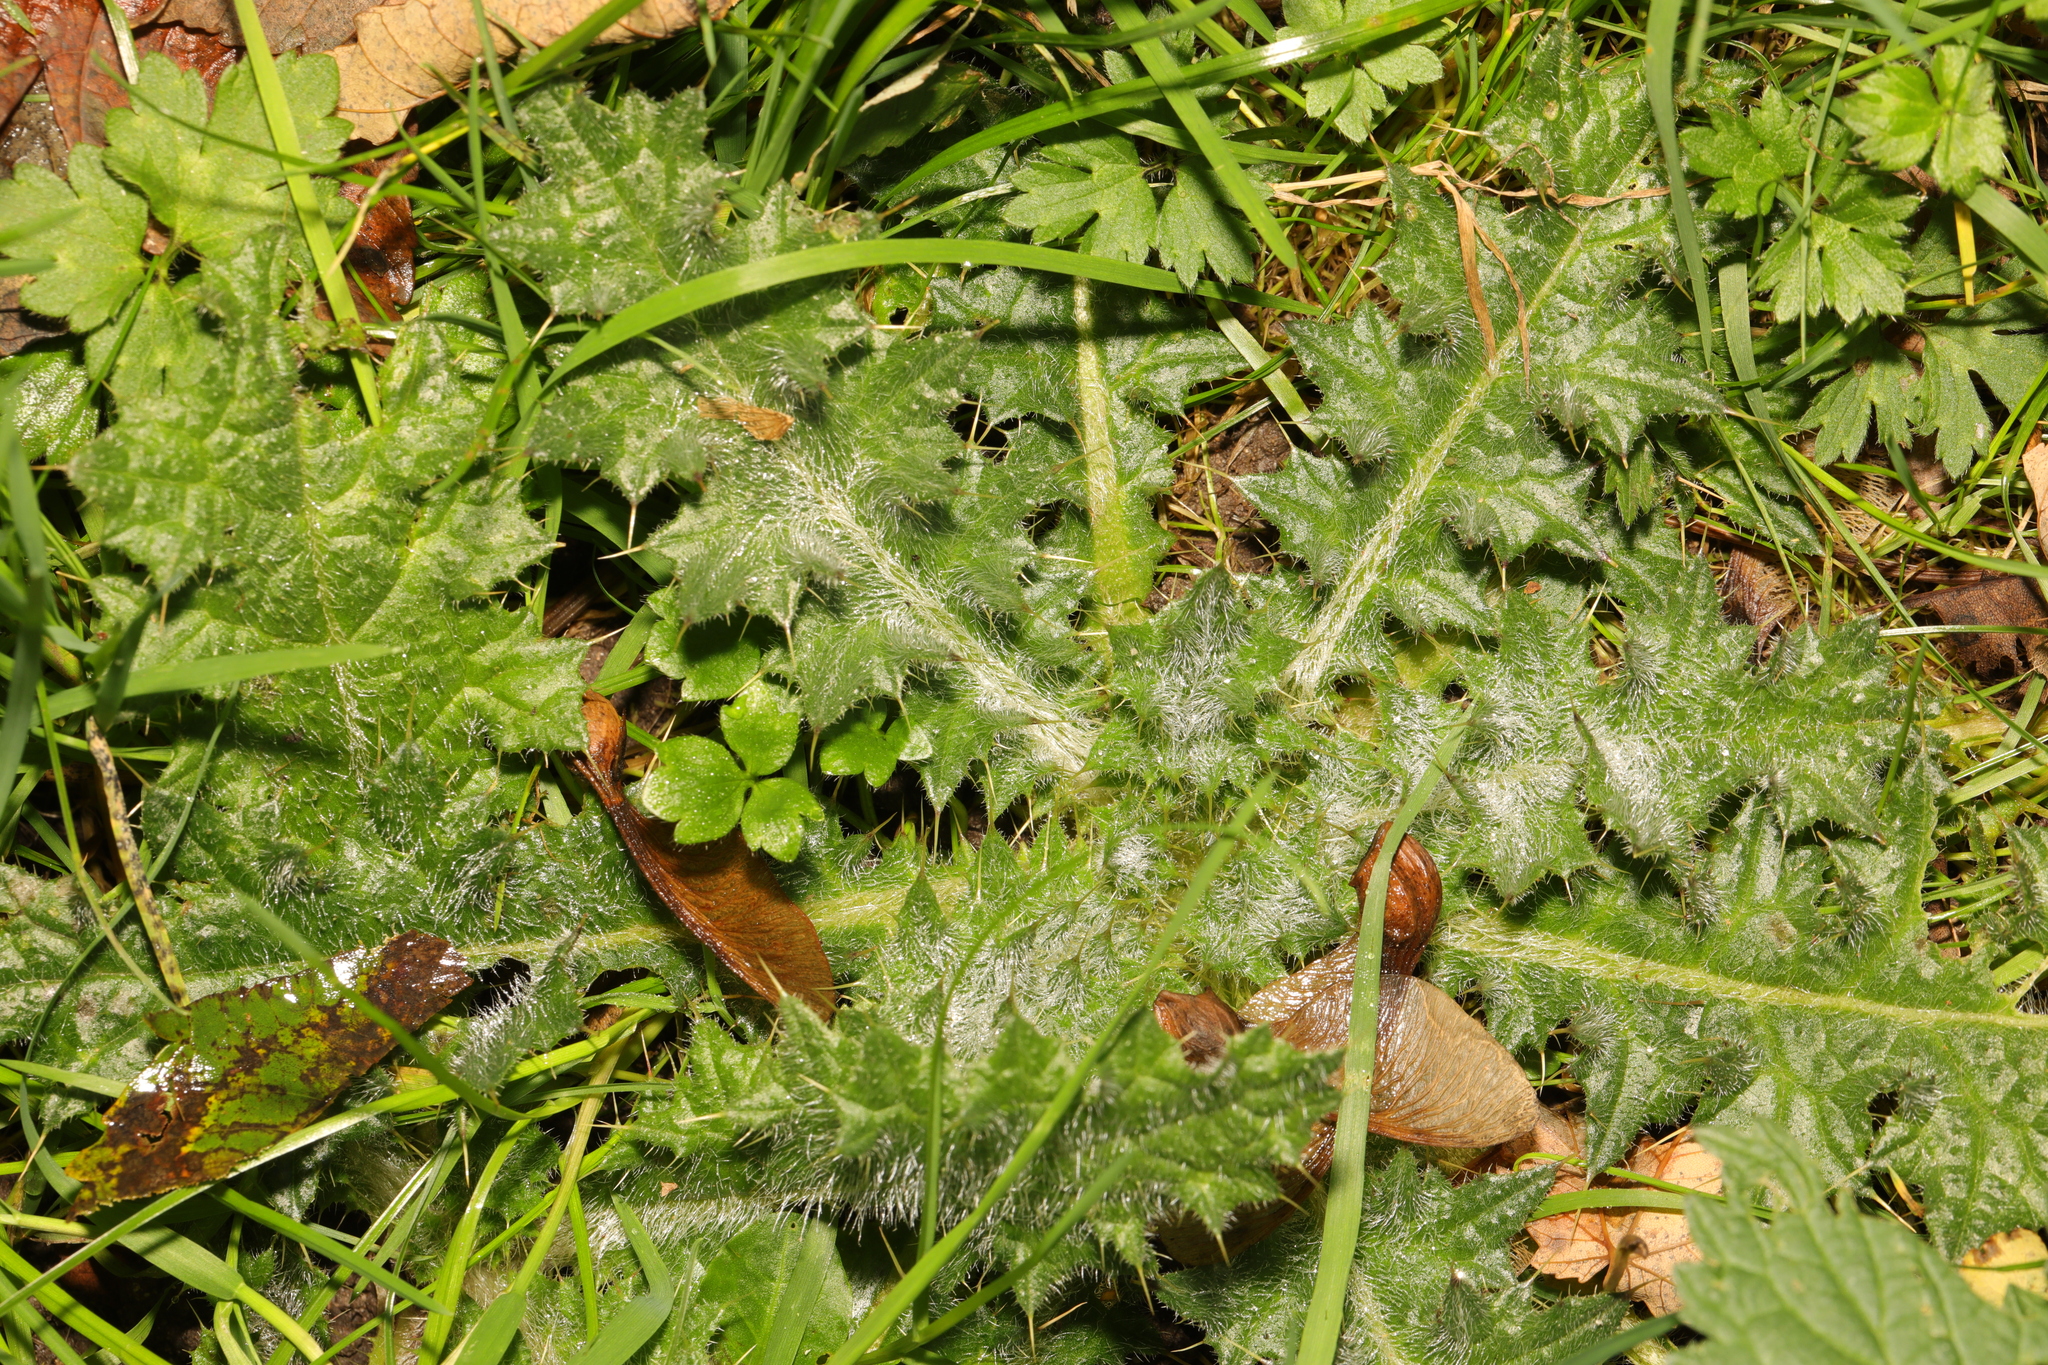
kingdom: Plantae
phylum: Tracheophyta
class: Magnoliopsida
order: Asterales
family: Asteraceae
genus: Cirsium
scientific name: Cirsium palustre
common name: Marsh thistle
